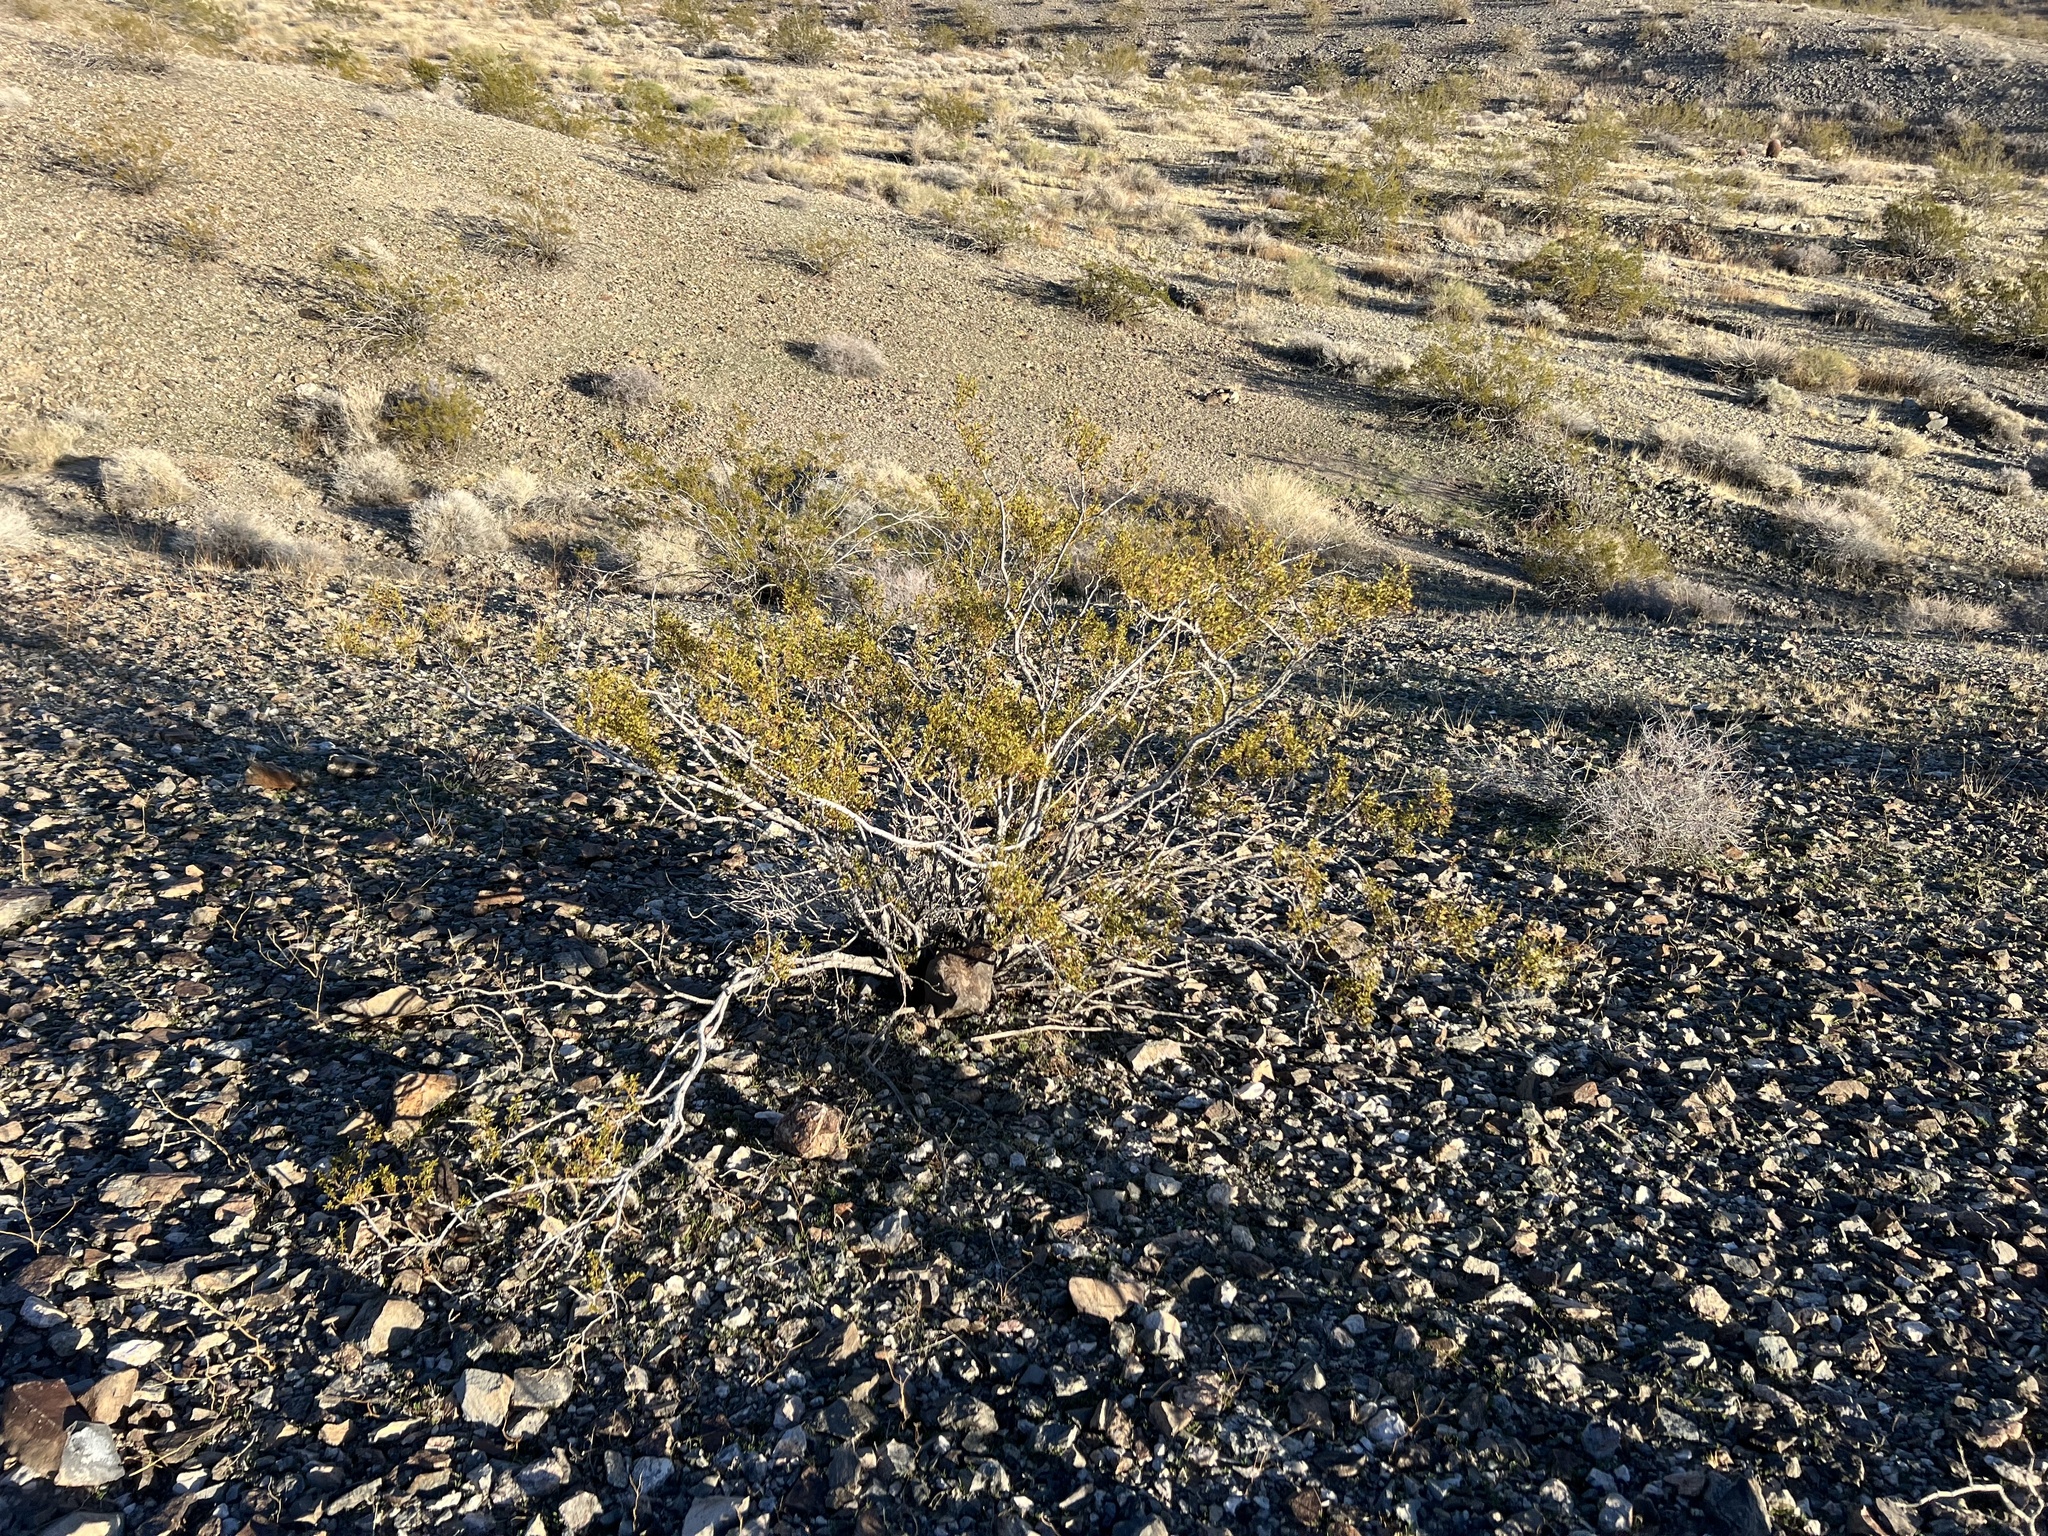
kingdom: Plantae
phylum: Tracheophyta
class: Magnoliopsida
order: Zygophyllales
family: Zygophyllaceae
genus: Larrea
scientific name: Larrea tridentata
